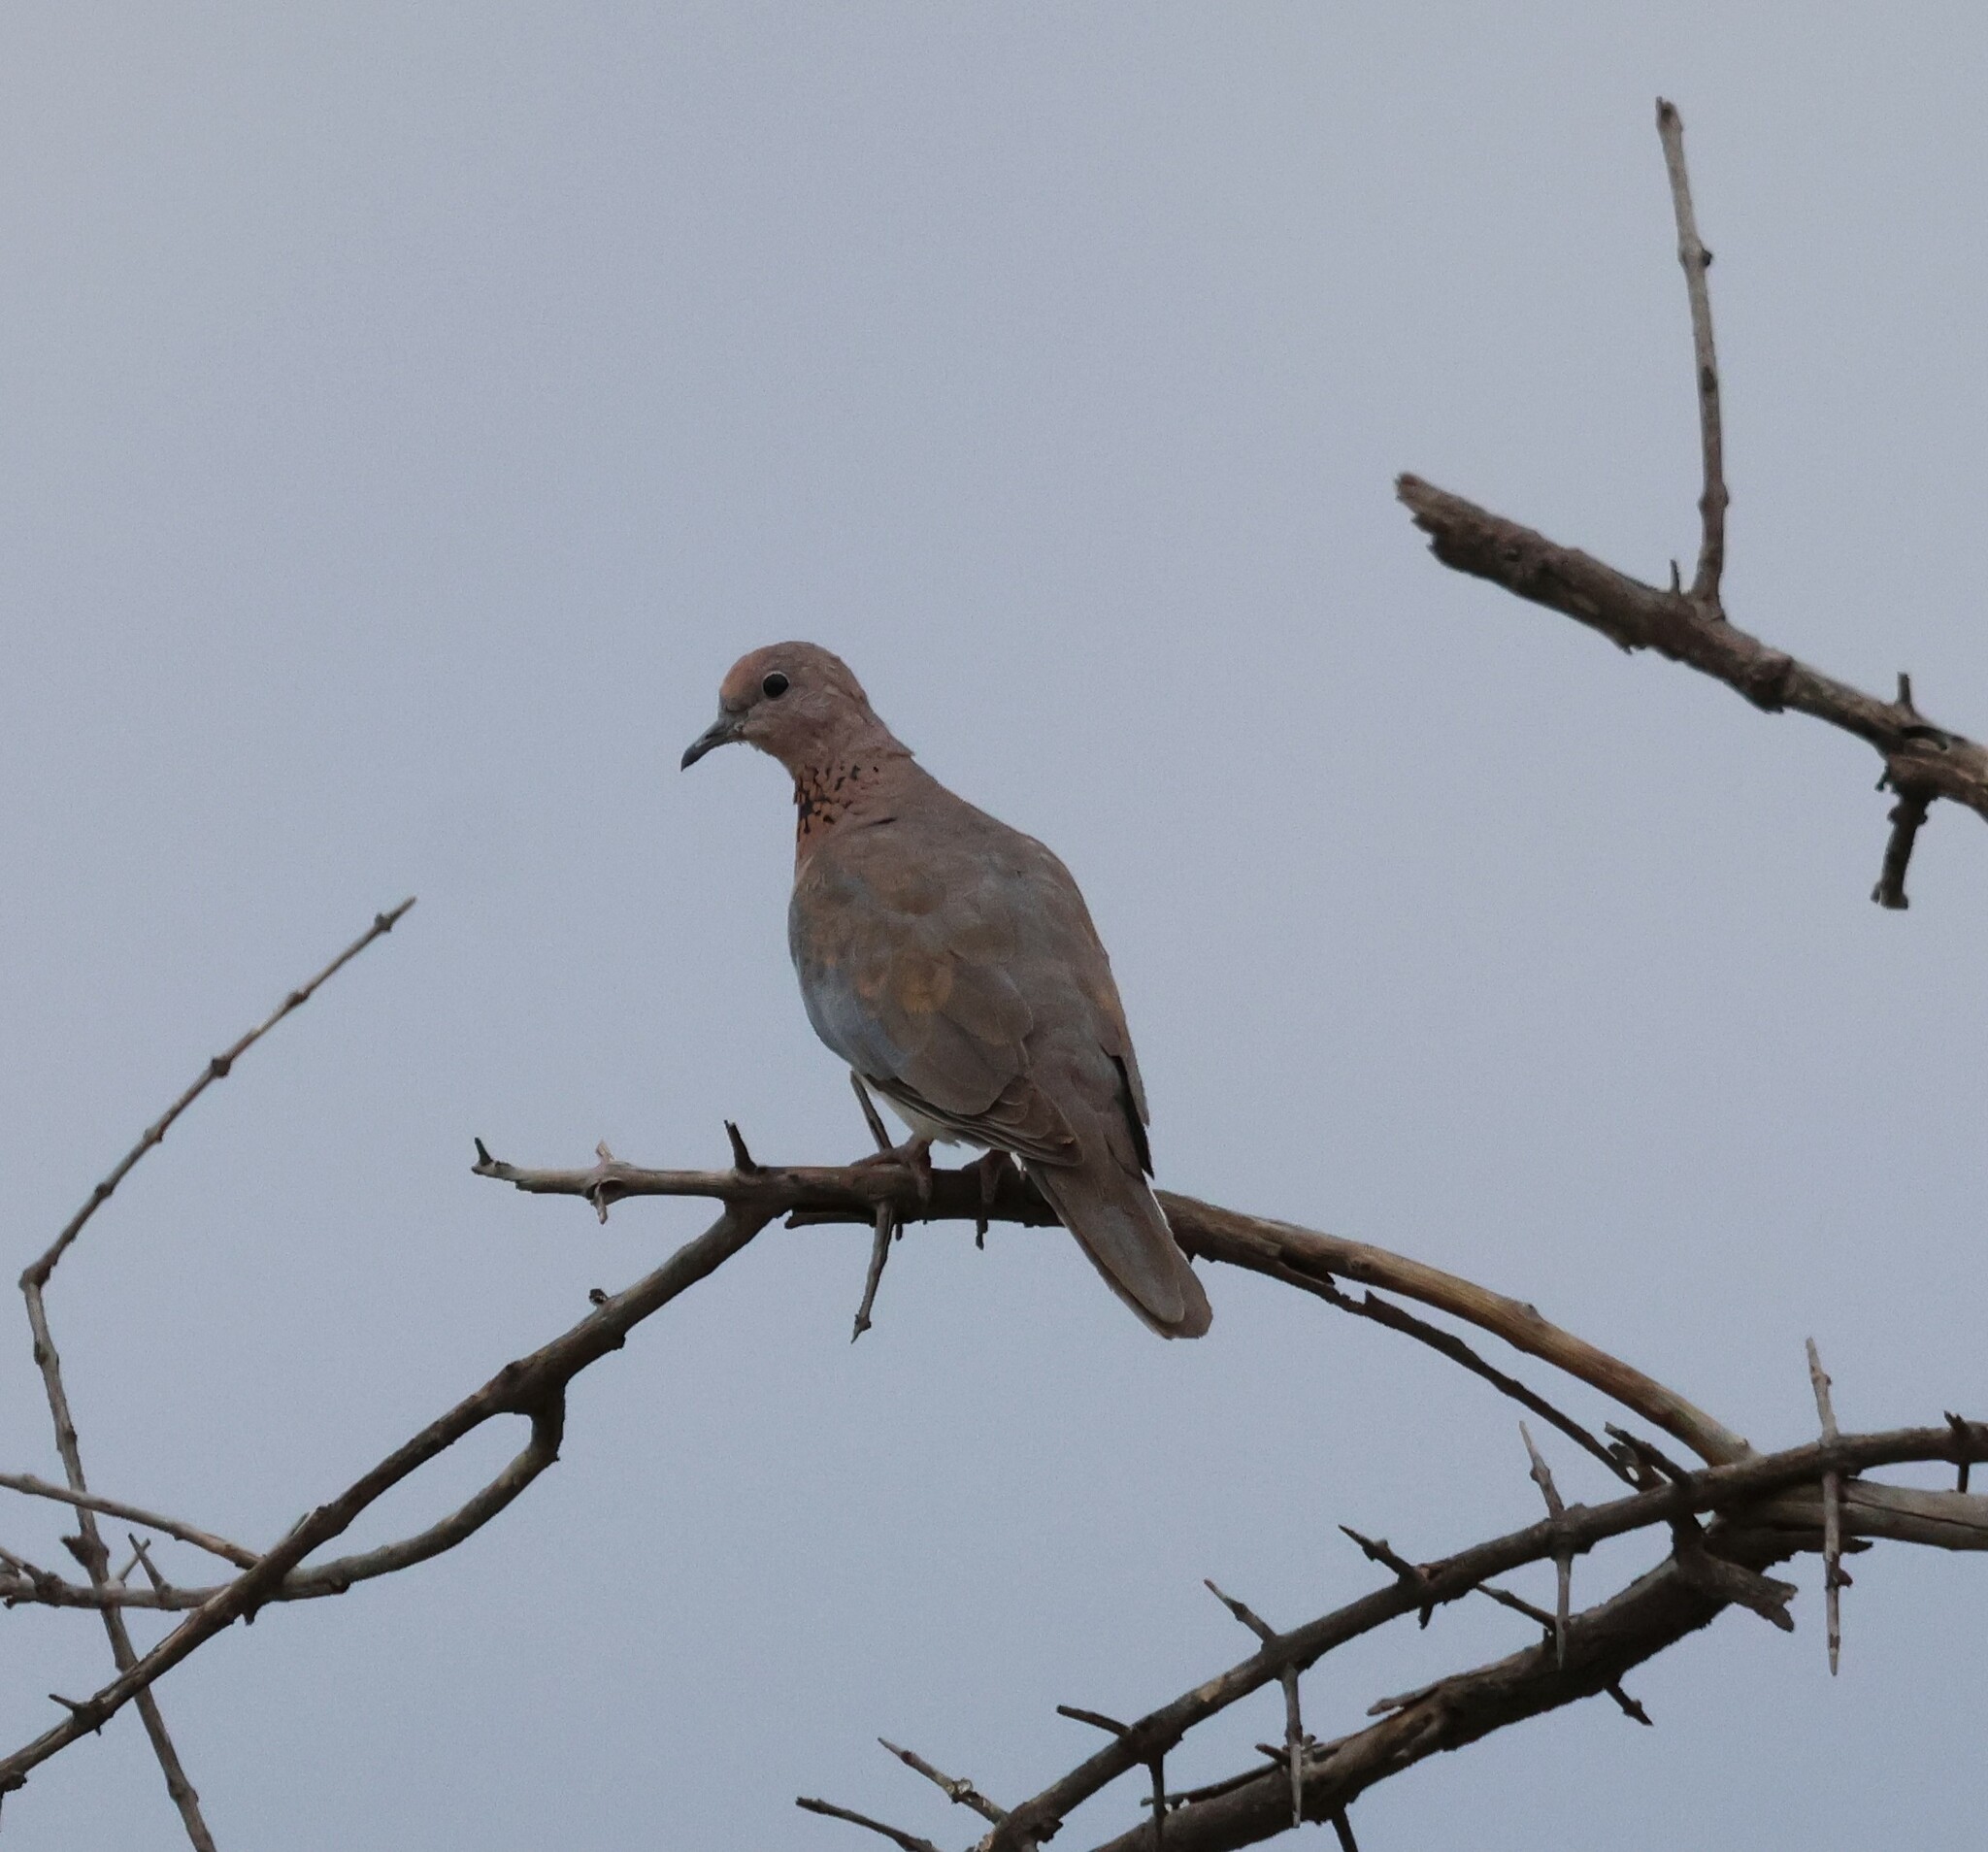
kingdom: Animalia
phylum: Chordata
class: Aves
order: Columbiformes
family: Columbidae
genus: Spilopelia
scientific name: Spilopelia senegalensis
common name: Laughing dove
